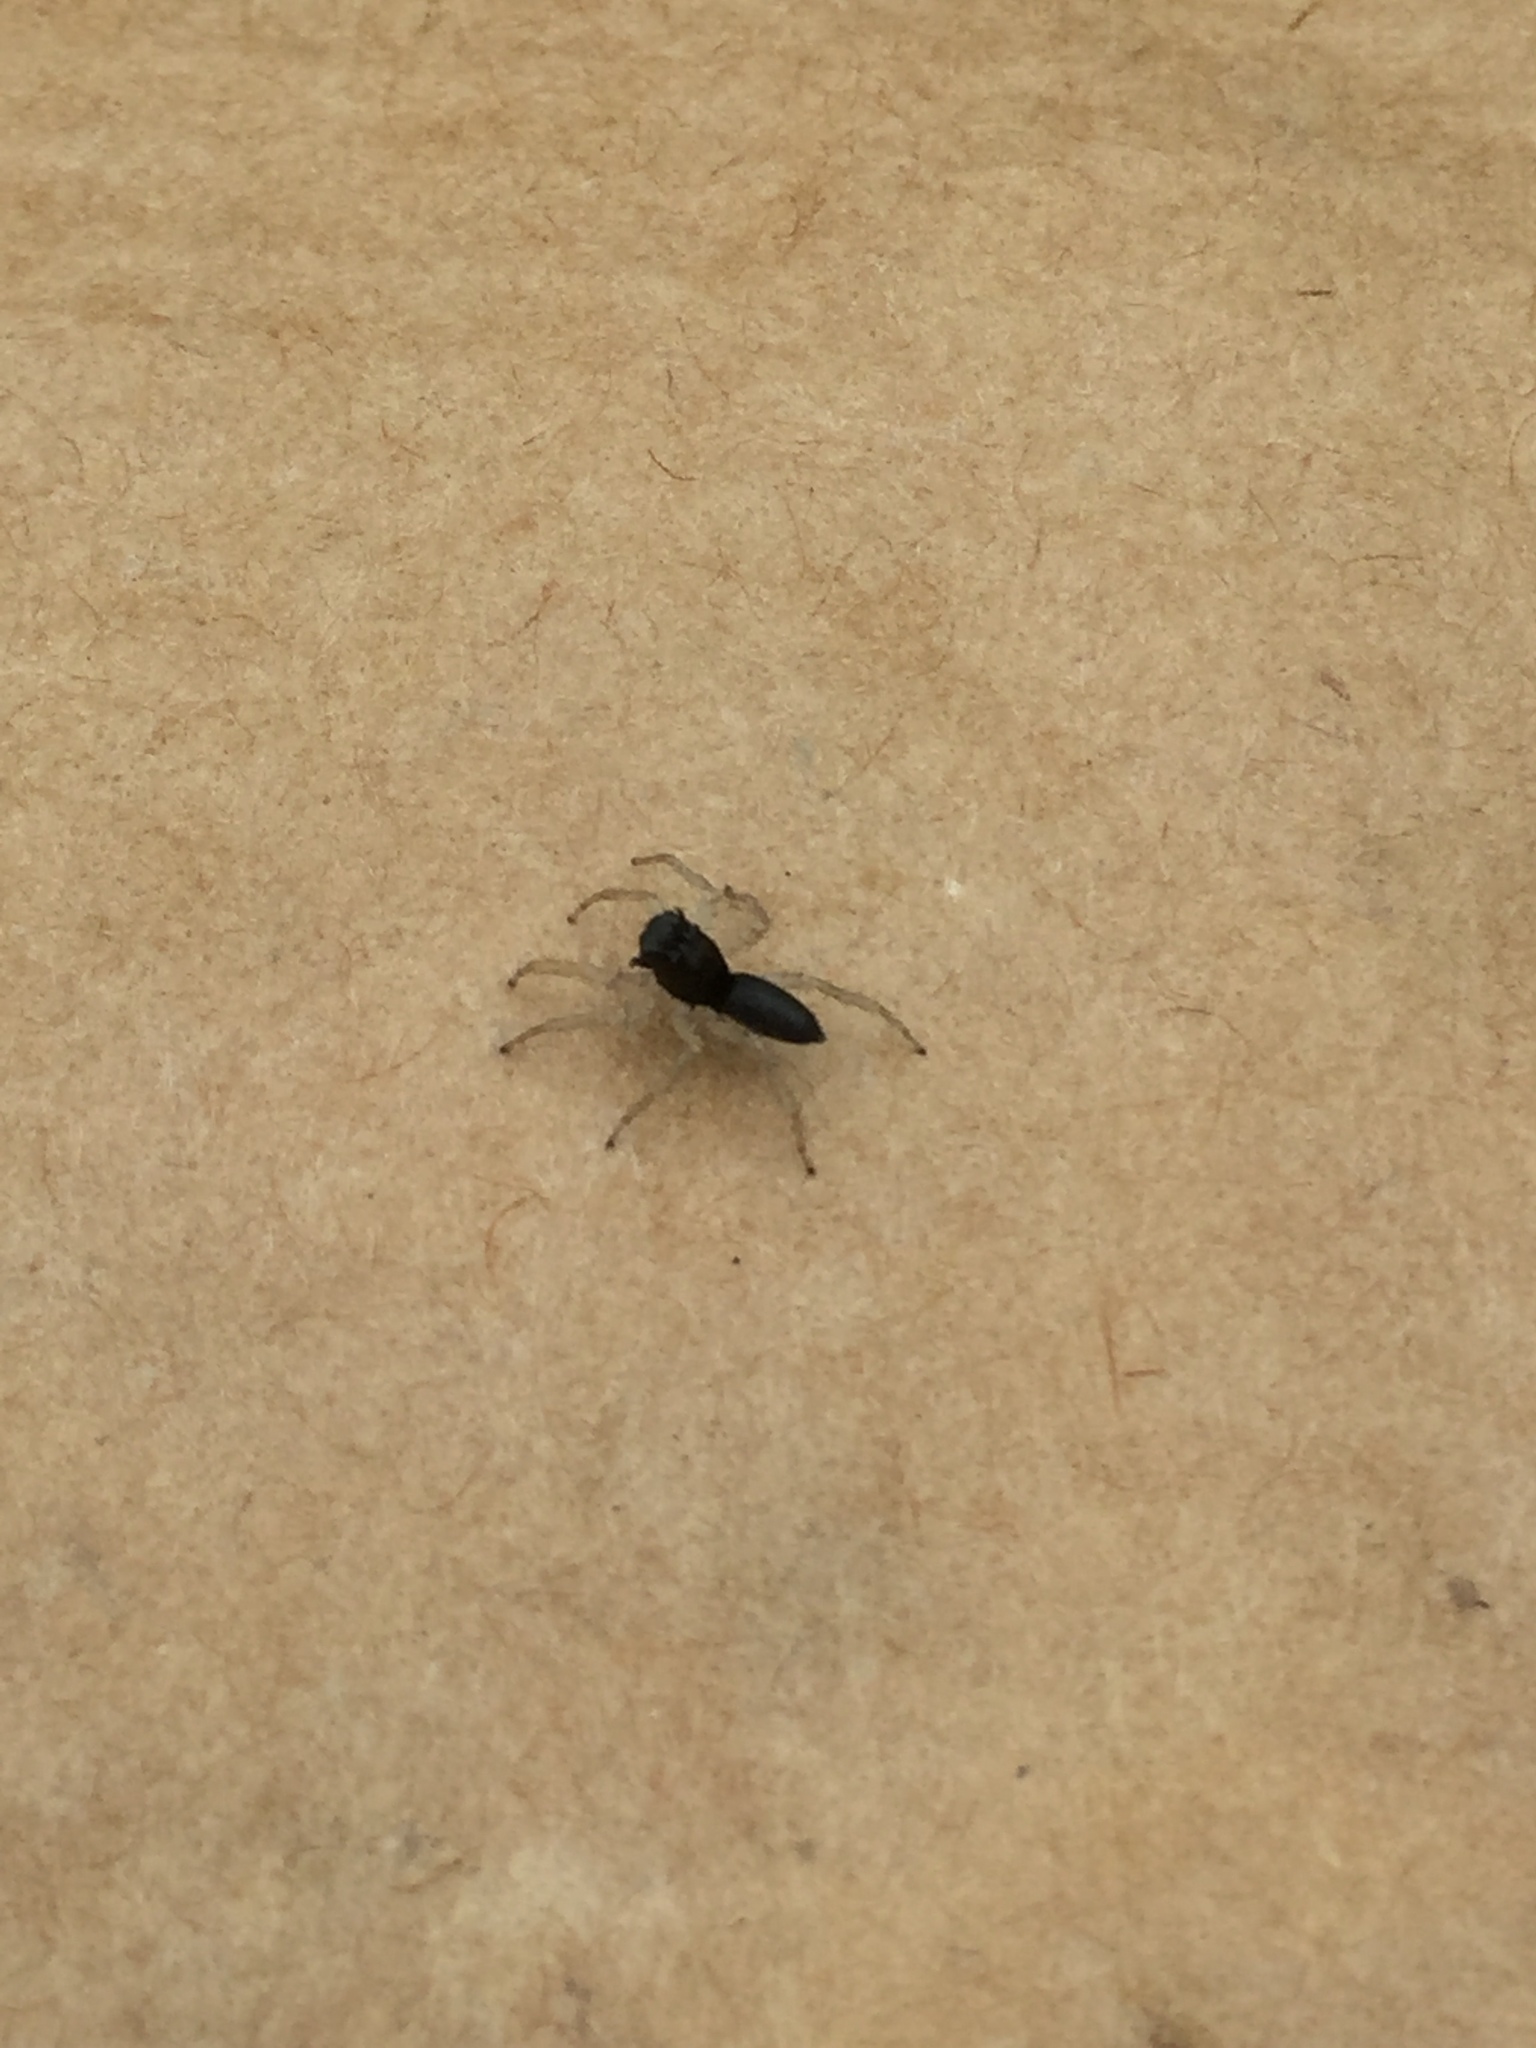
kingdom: Animalia
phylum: Arthropoda
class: Arachnida
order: Araneae
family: Salticidae
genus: Maevia
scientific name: Maevia inclemens
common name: Dimorphic jumper
